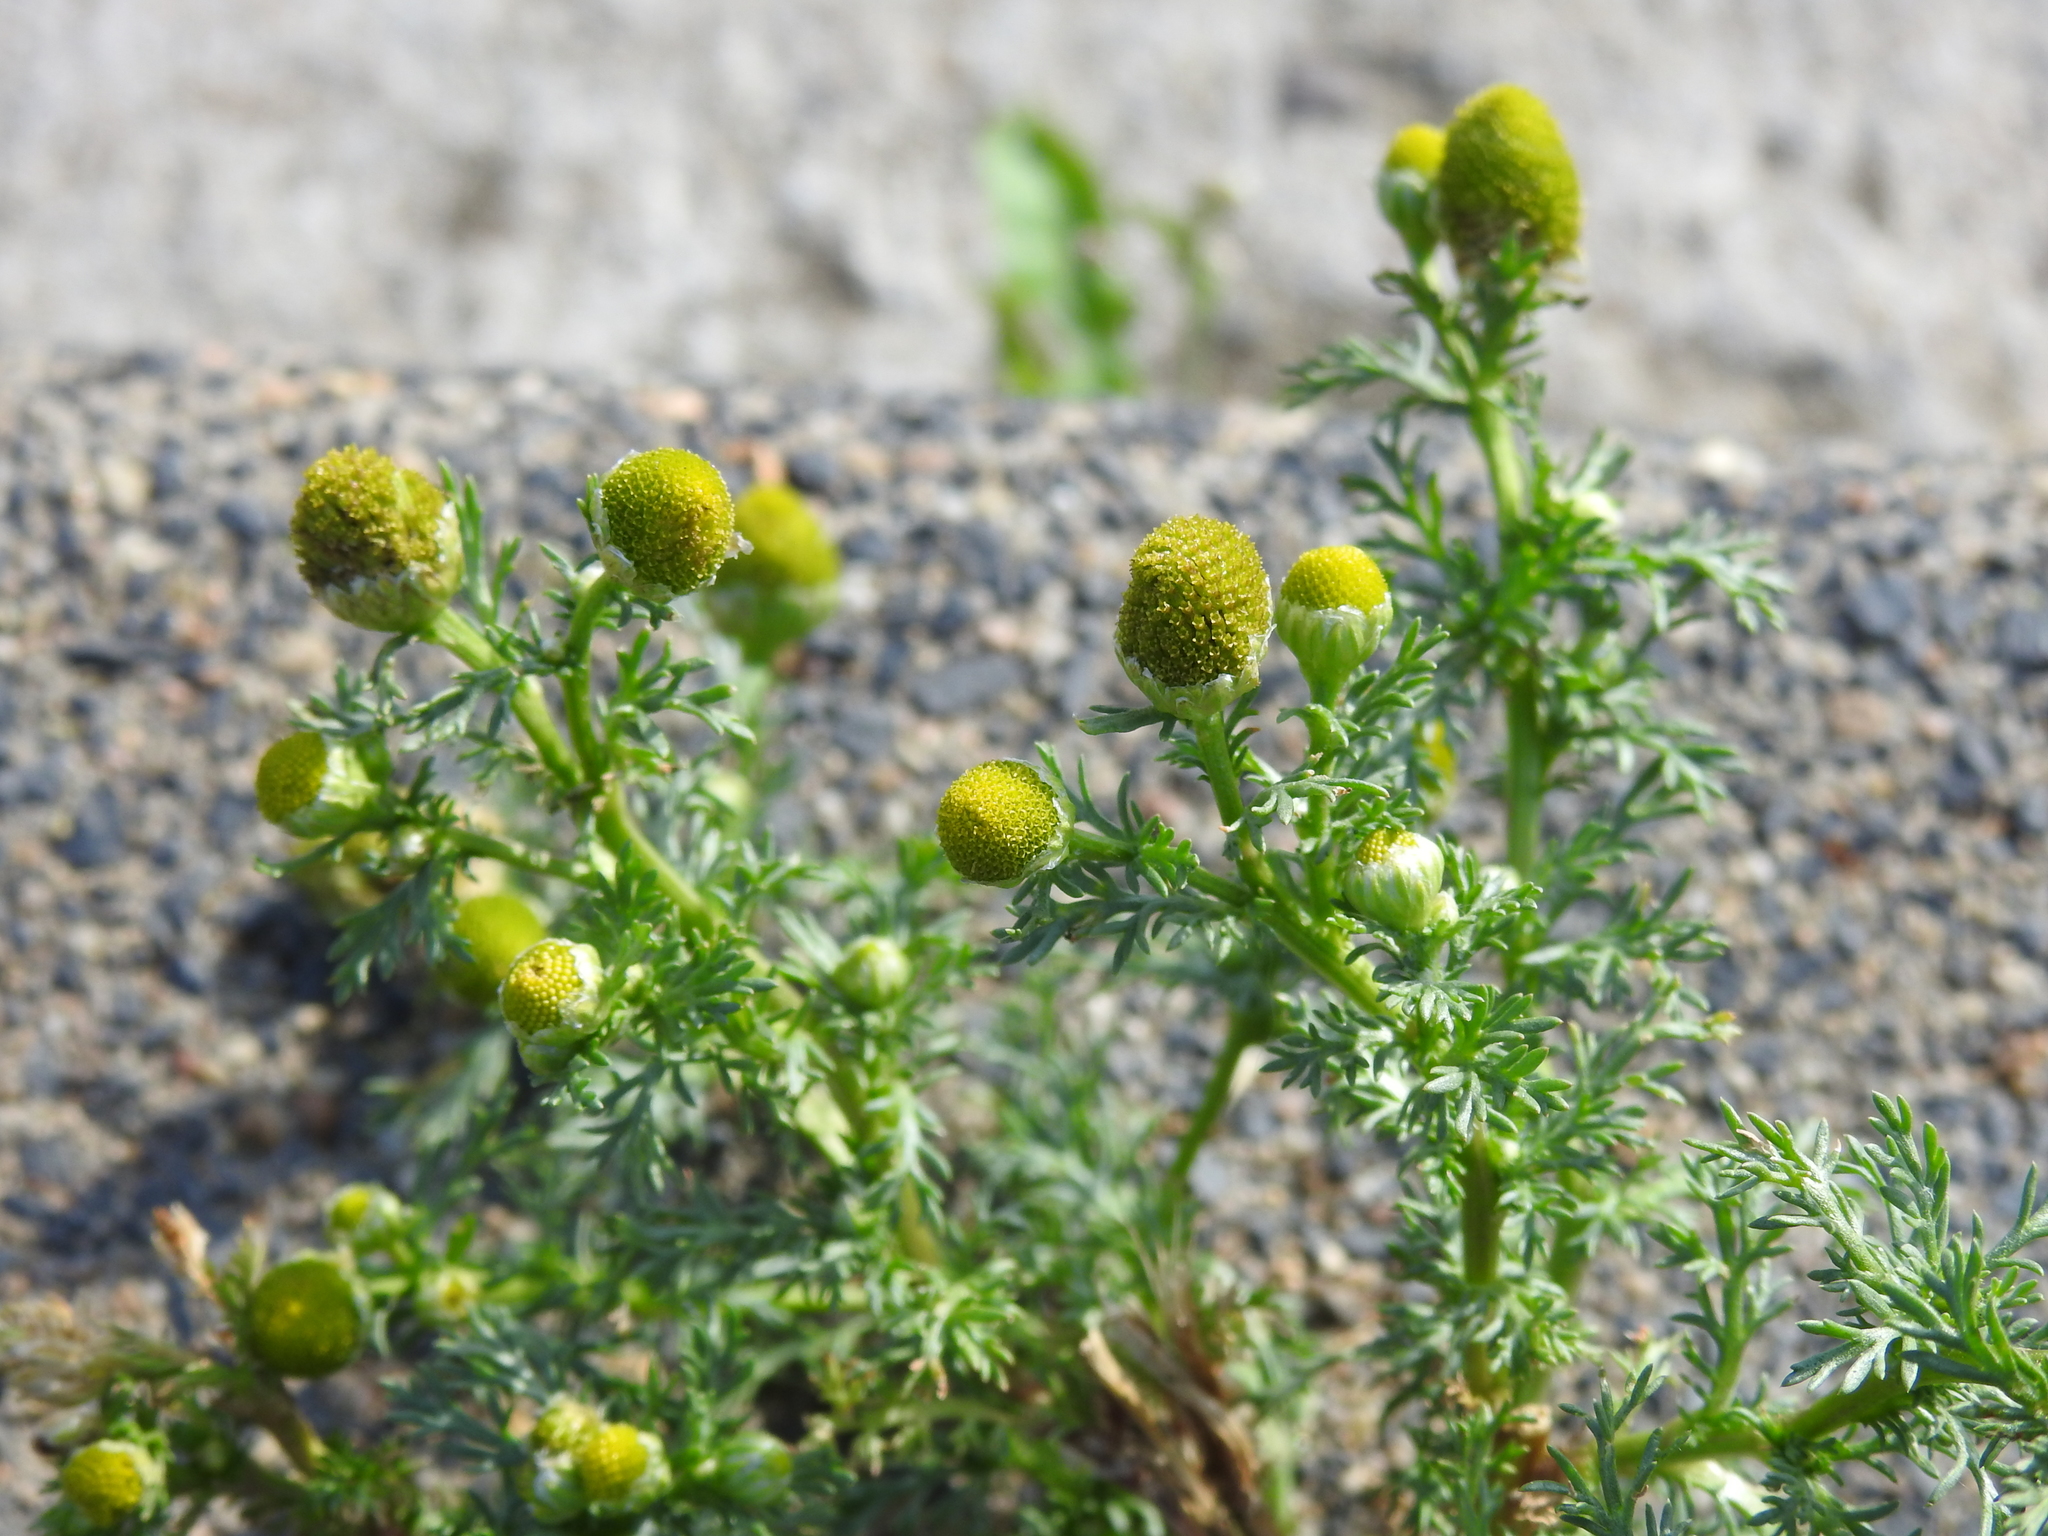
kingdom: Plantae
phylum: Tracheophyta
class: Magnoliopsida
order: Asterales
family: Asteraceae
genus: Matricaria
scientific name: Matricaria discoidea
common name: Disc mayweed
